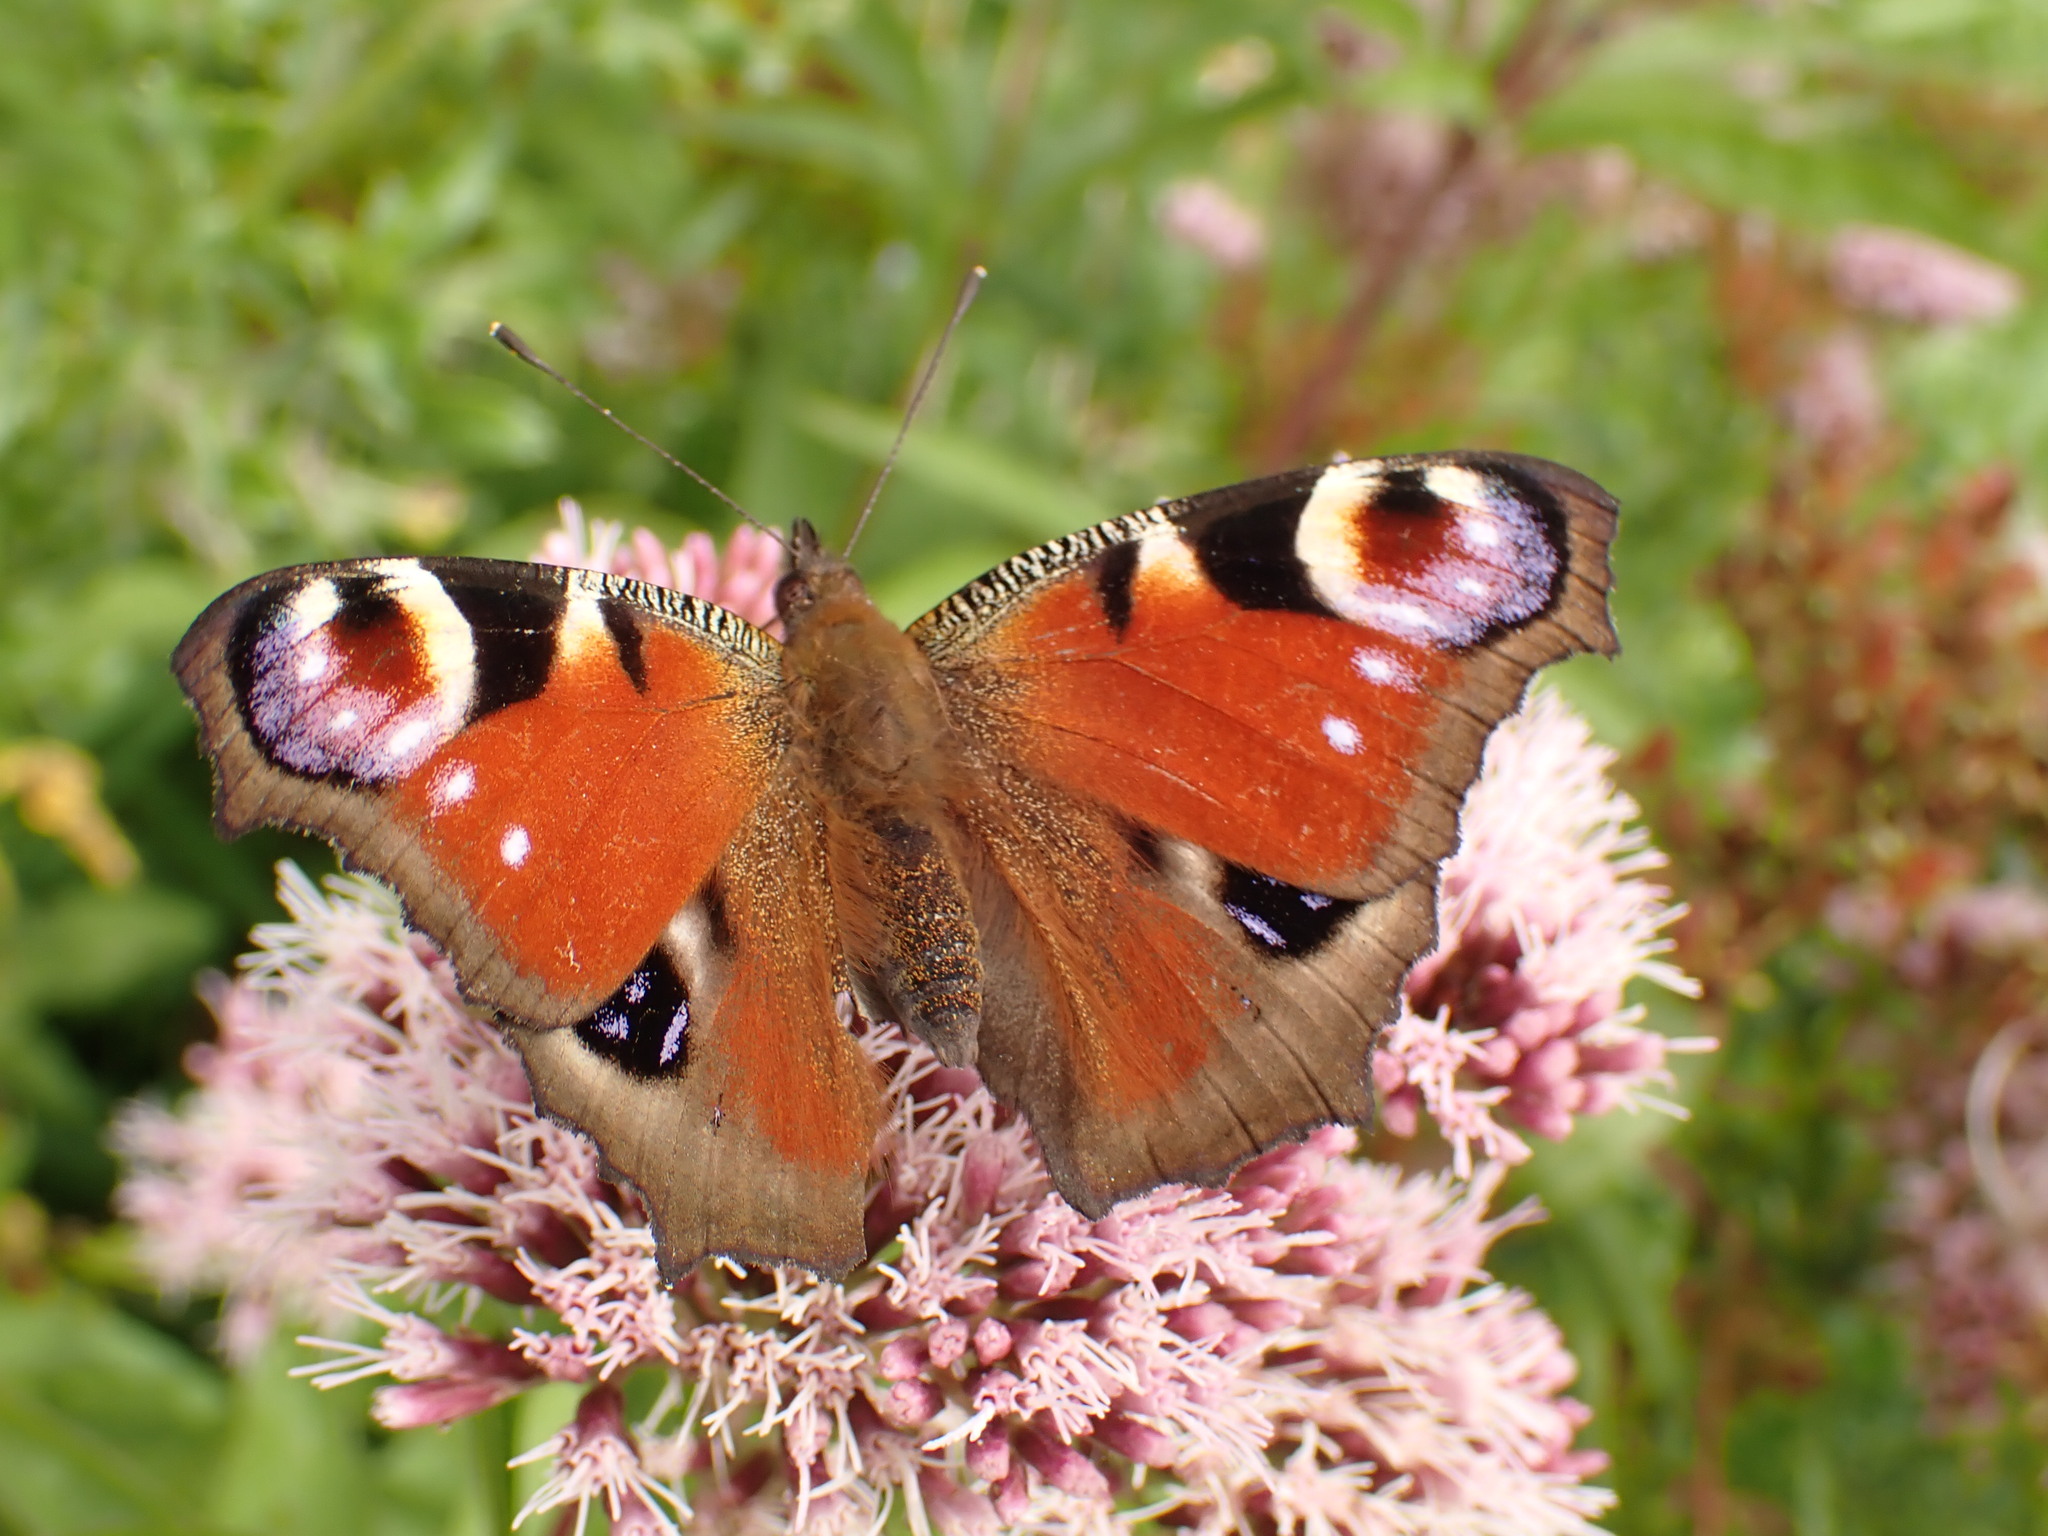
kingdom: Animalia
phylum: Arthropoda
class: Insecta
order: Lepidoptera
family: Nymphalidae
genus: Aglais
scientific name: Aglais io
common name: Peacock
